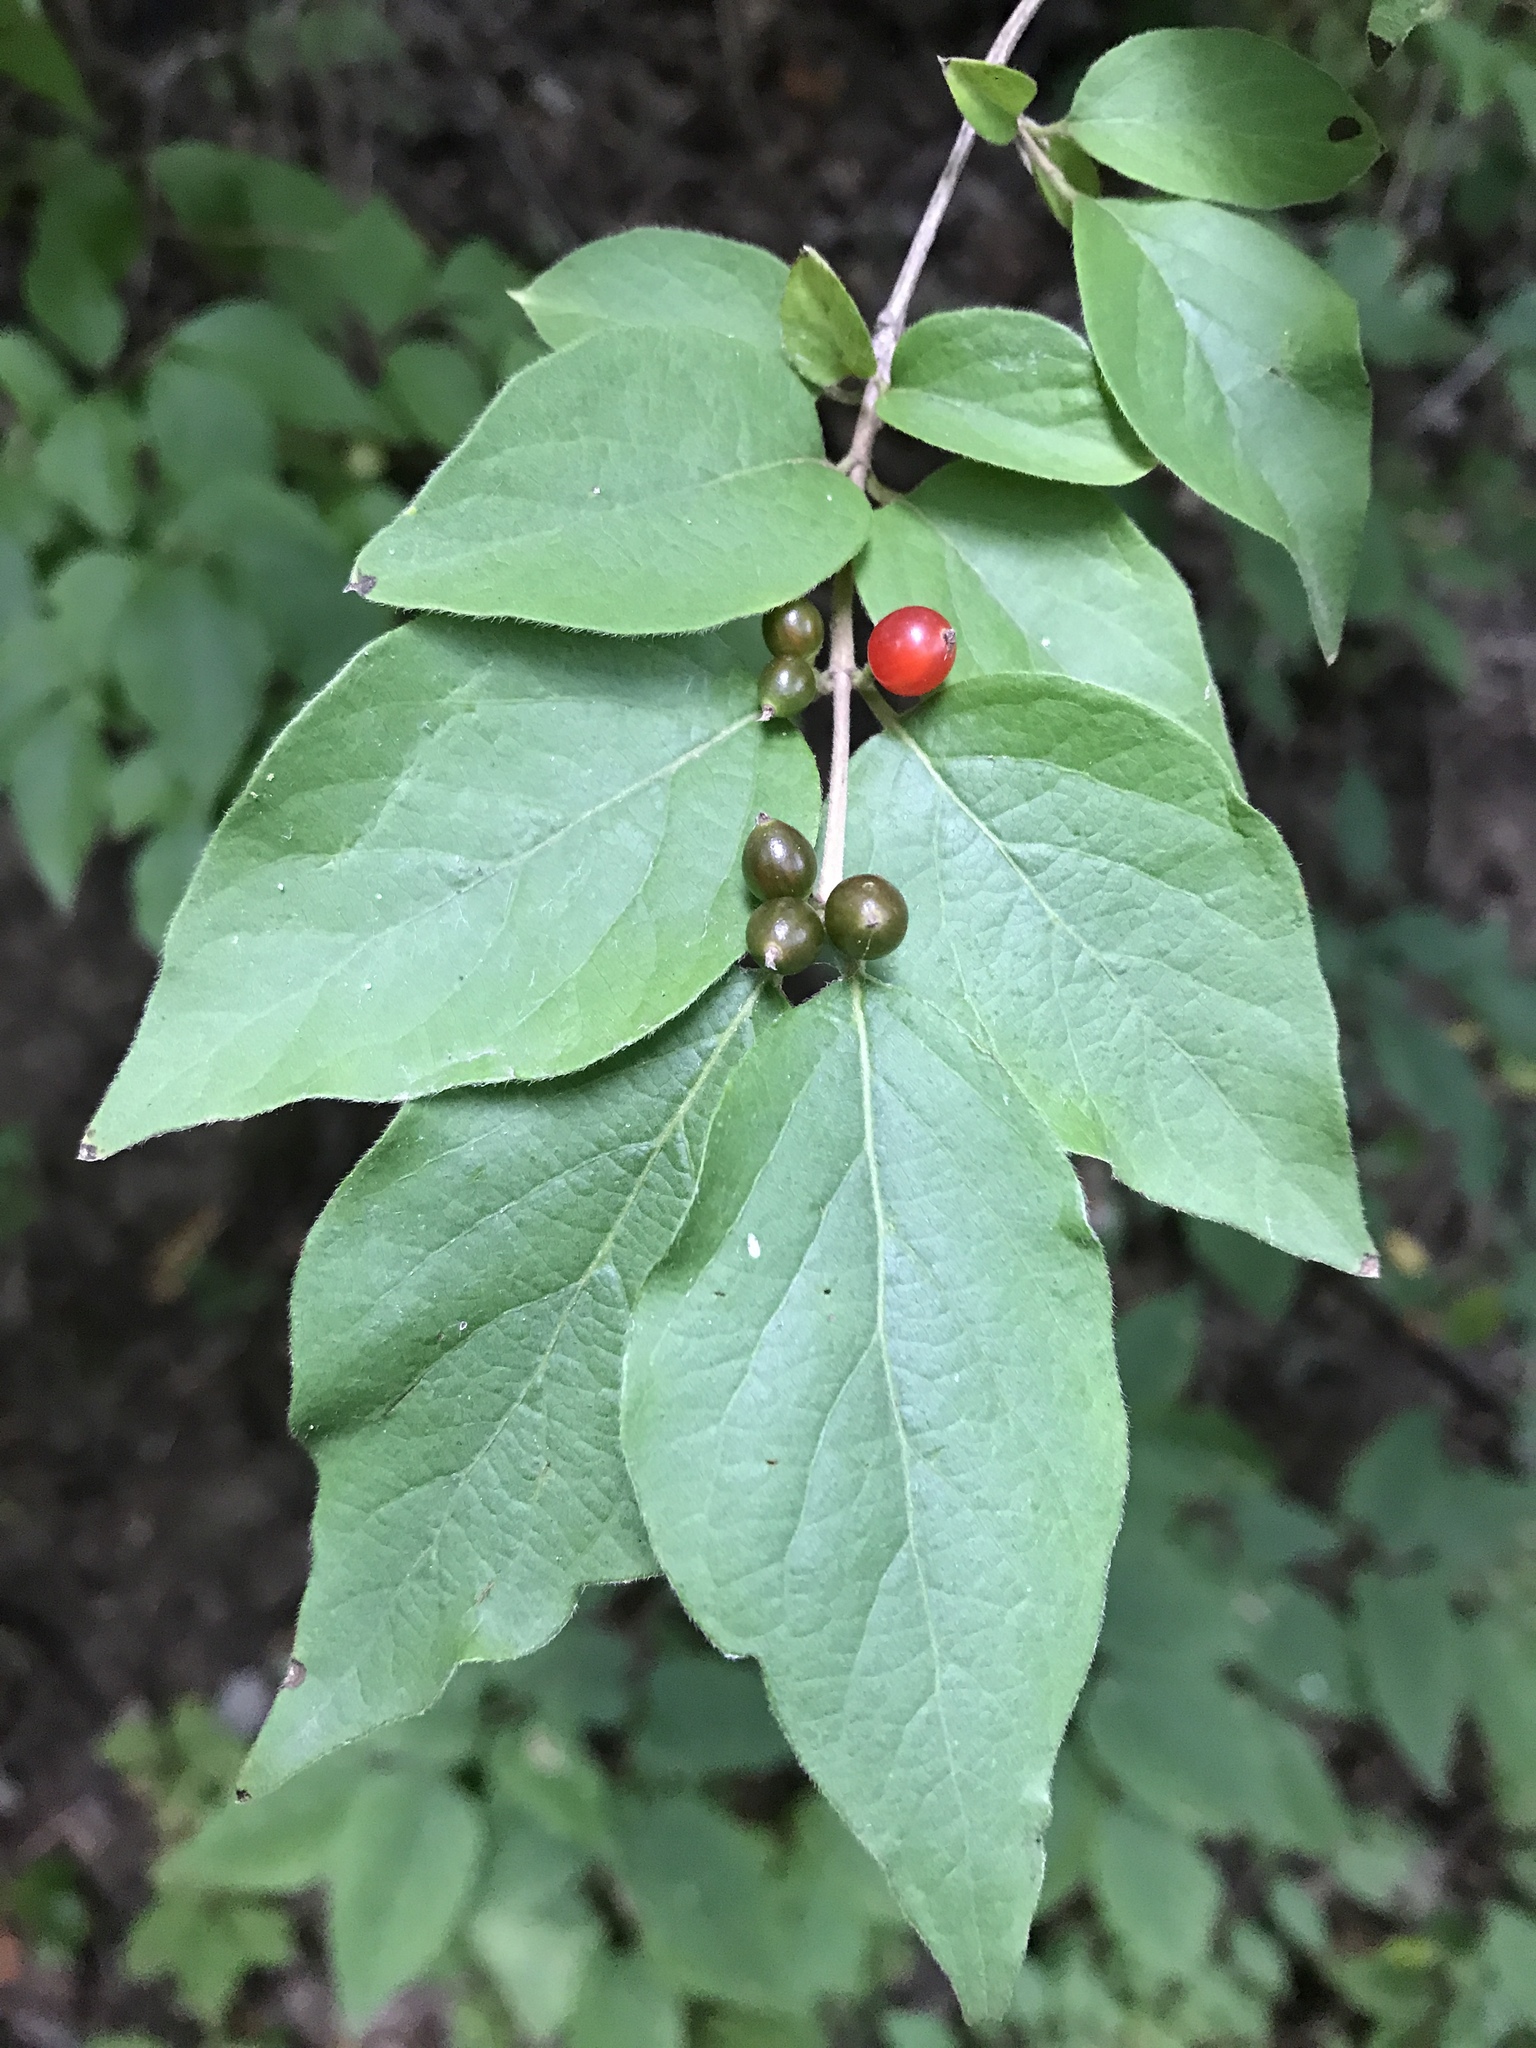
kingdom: Plantae
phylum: Tracheophyta
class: Magnoliopsida
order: Dipsacales
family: Caprifoliaceae
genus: Lonicera
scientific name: Lonicera maackii
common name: Amur honeysuckle
